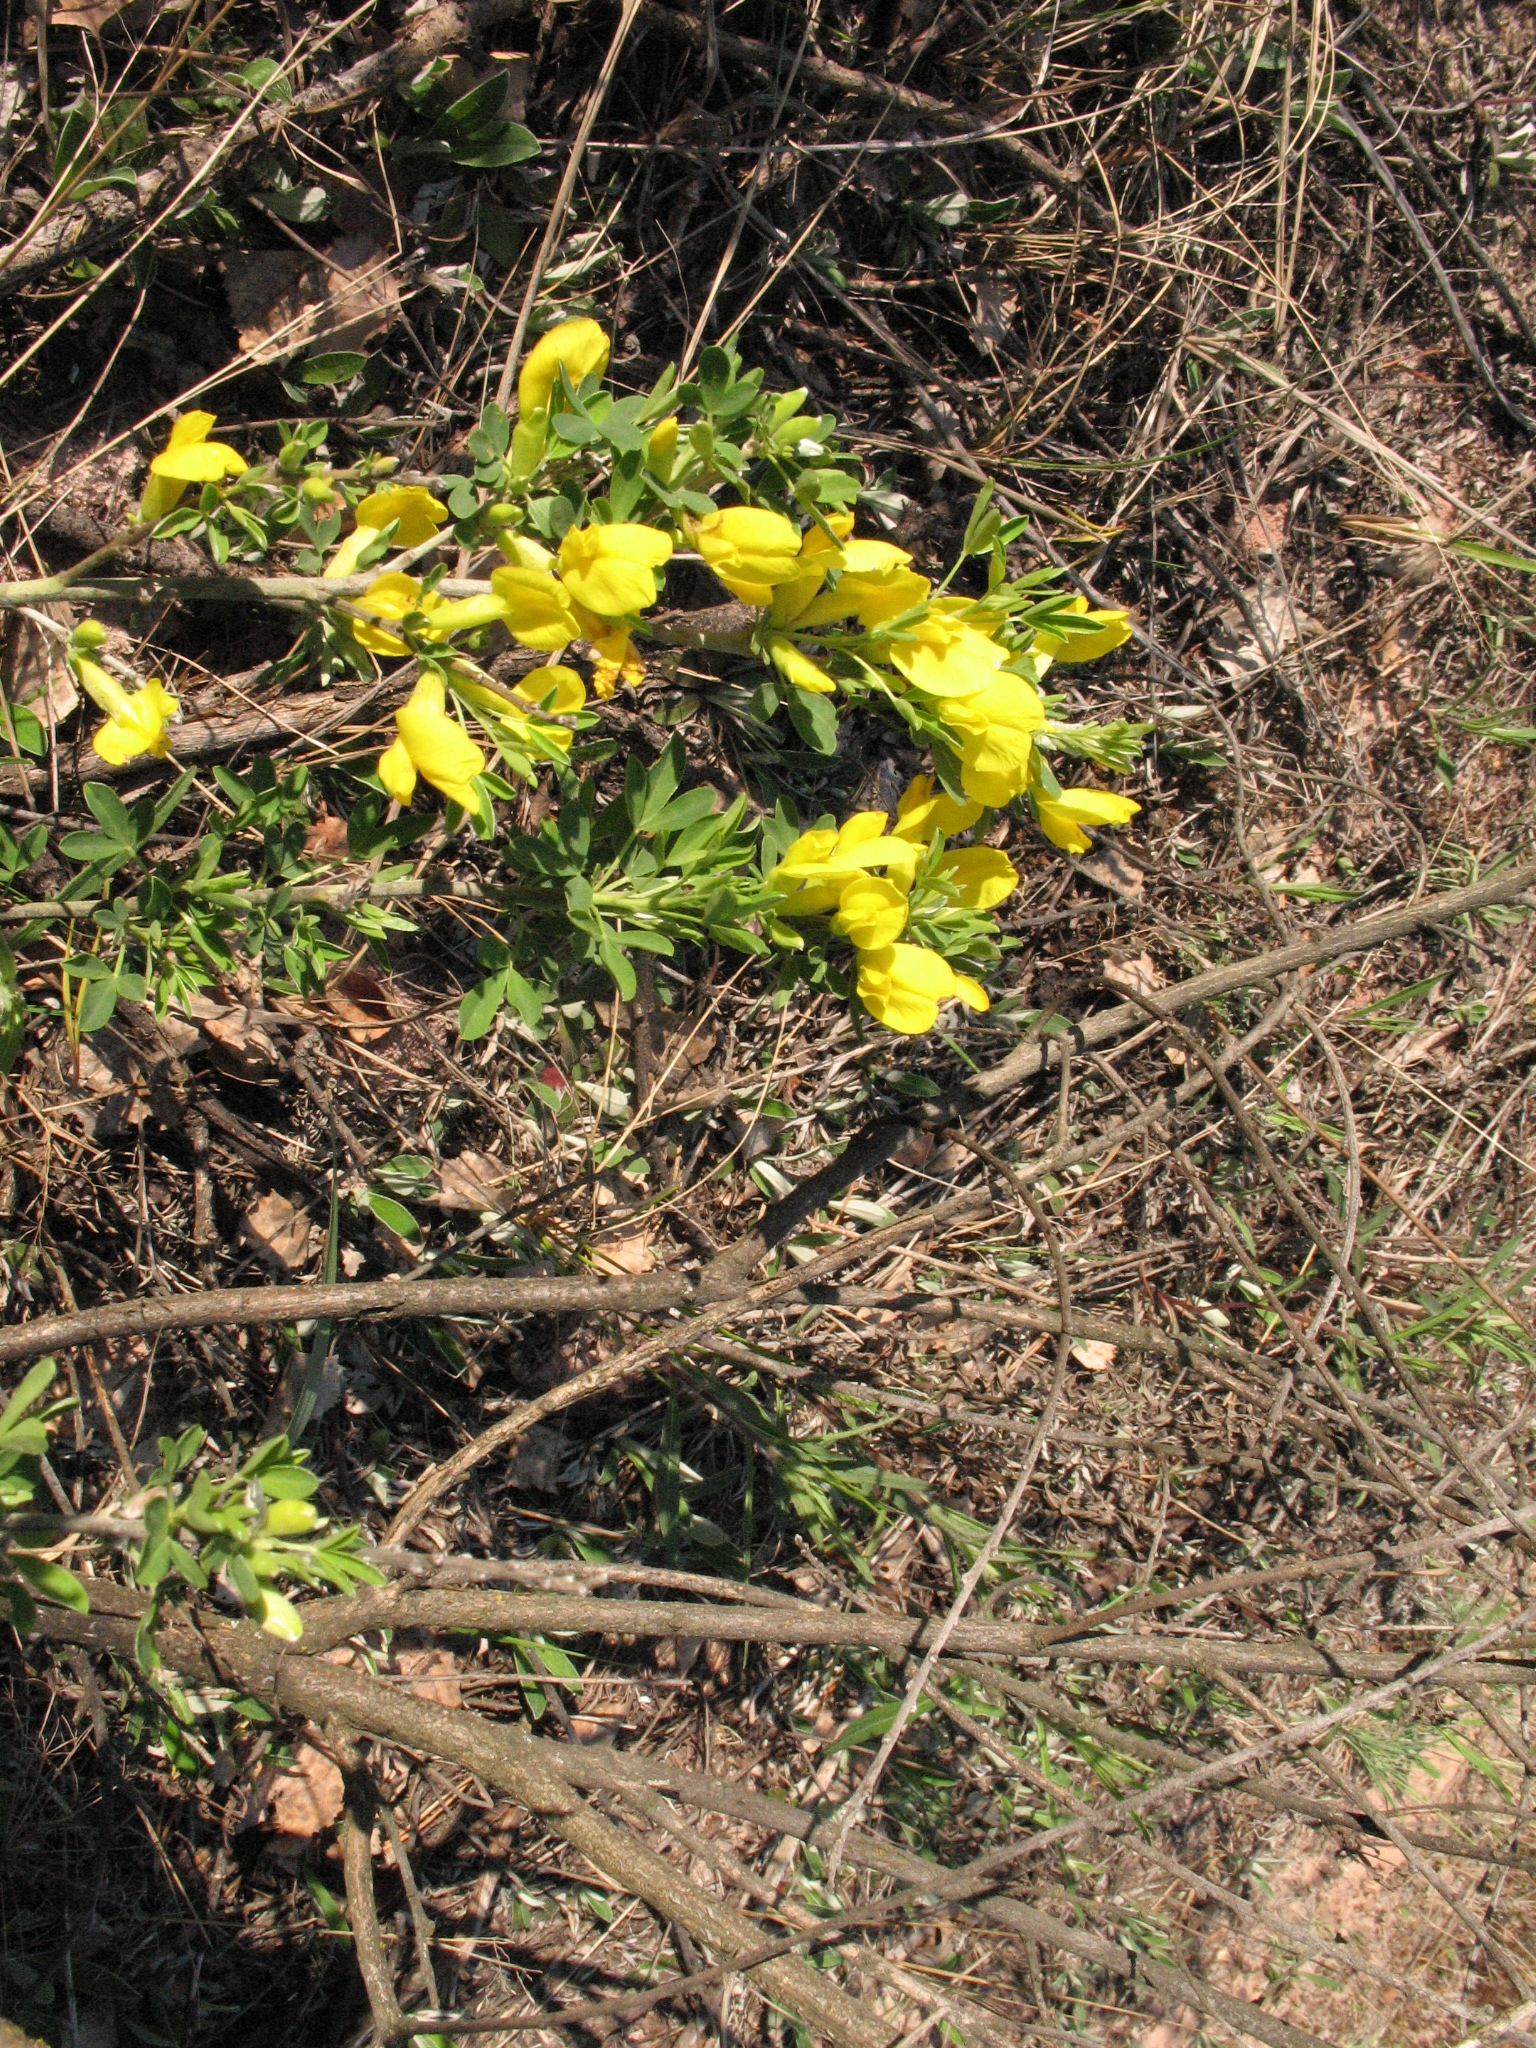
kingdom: Plantae
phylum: Tracheophyta
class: Magnoliopsida
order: Fabales
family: Fabaceae
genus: Chamaecytisus
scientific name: Chamaecytisus ruthenicus
